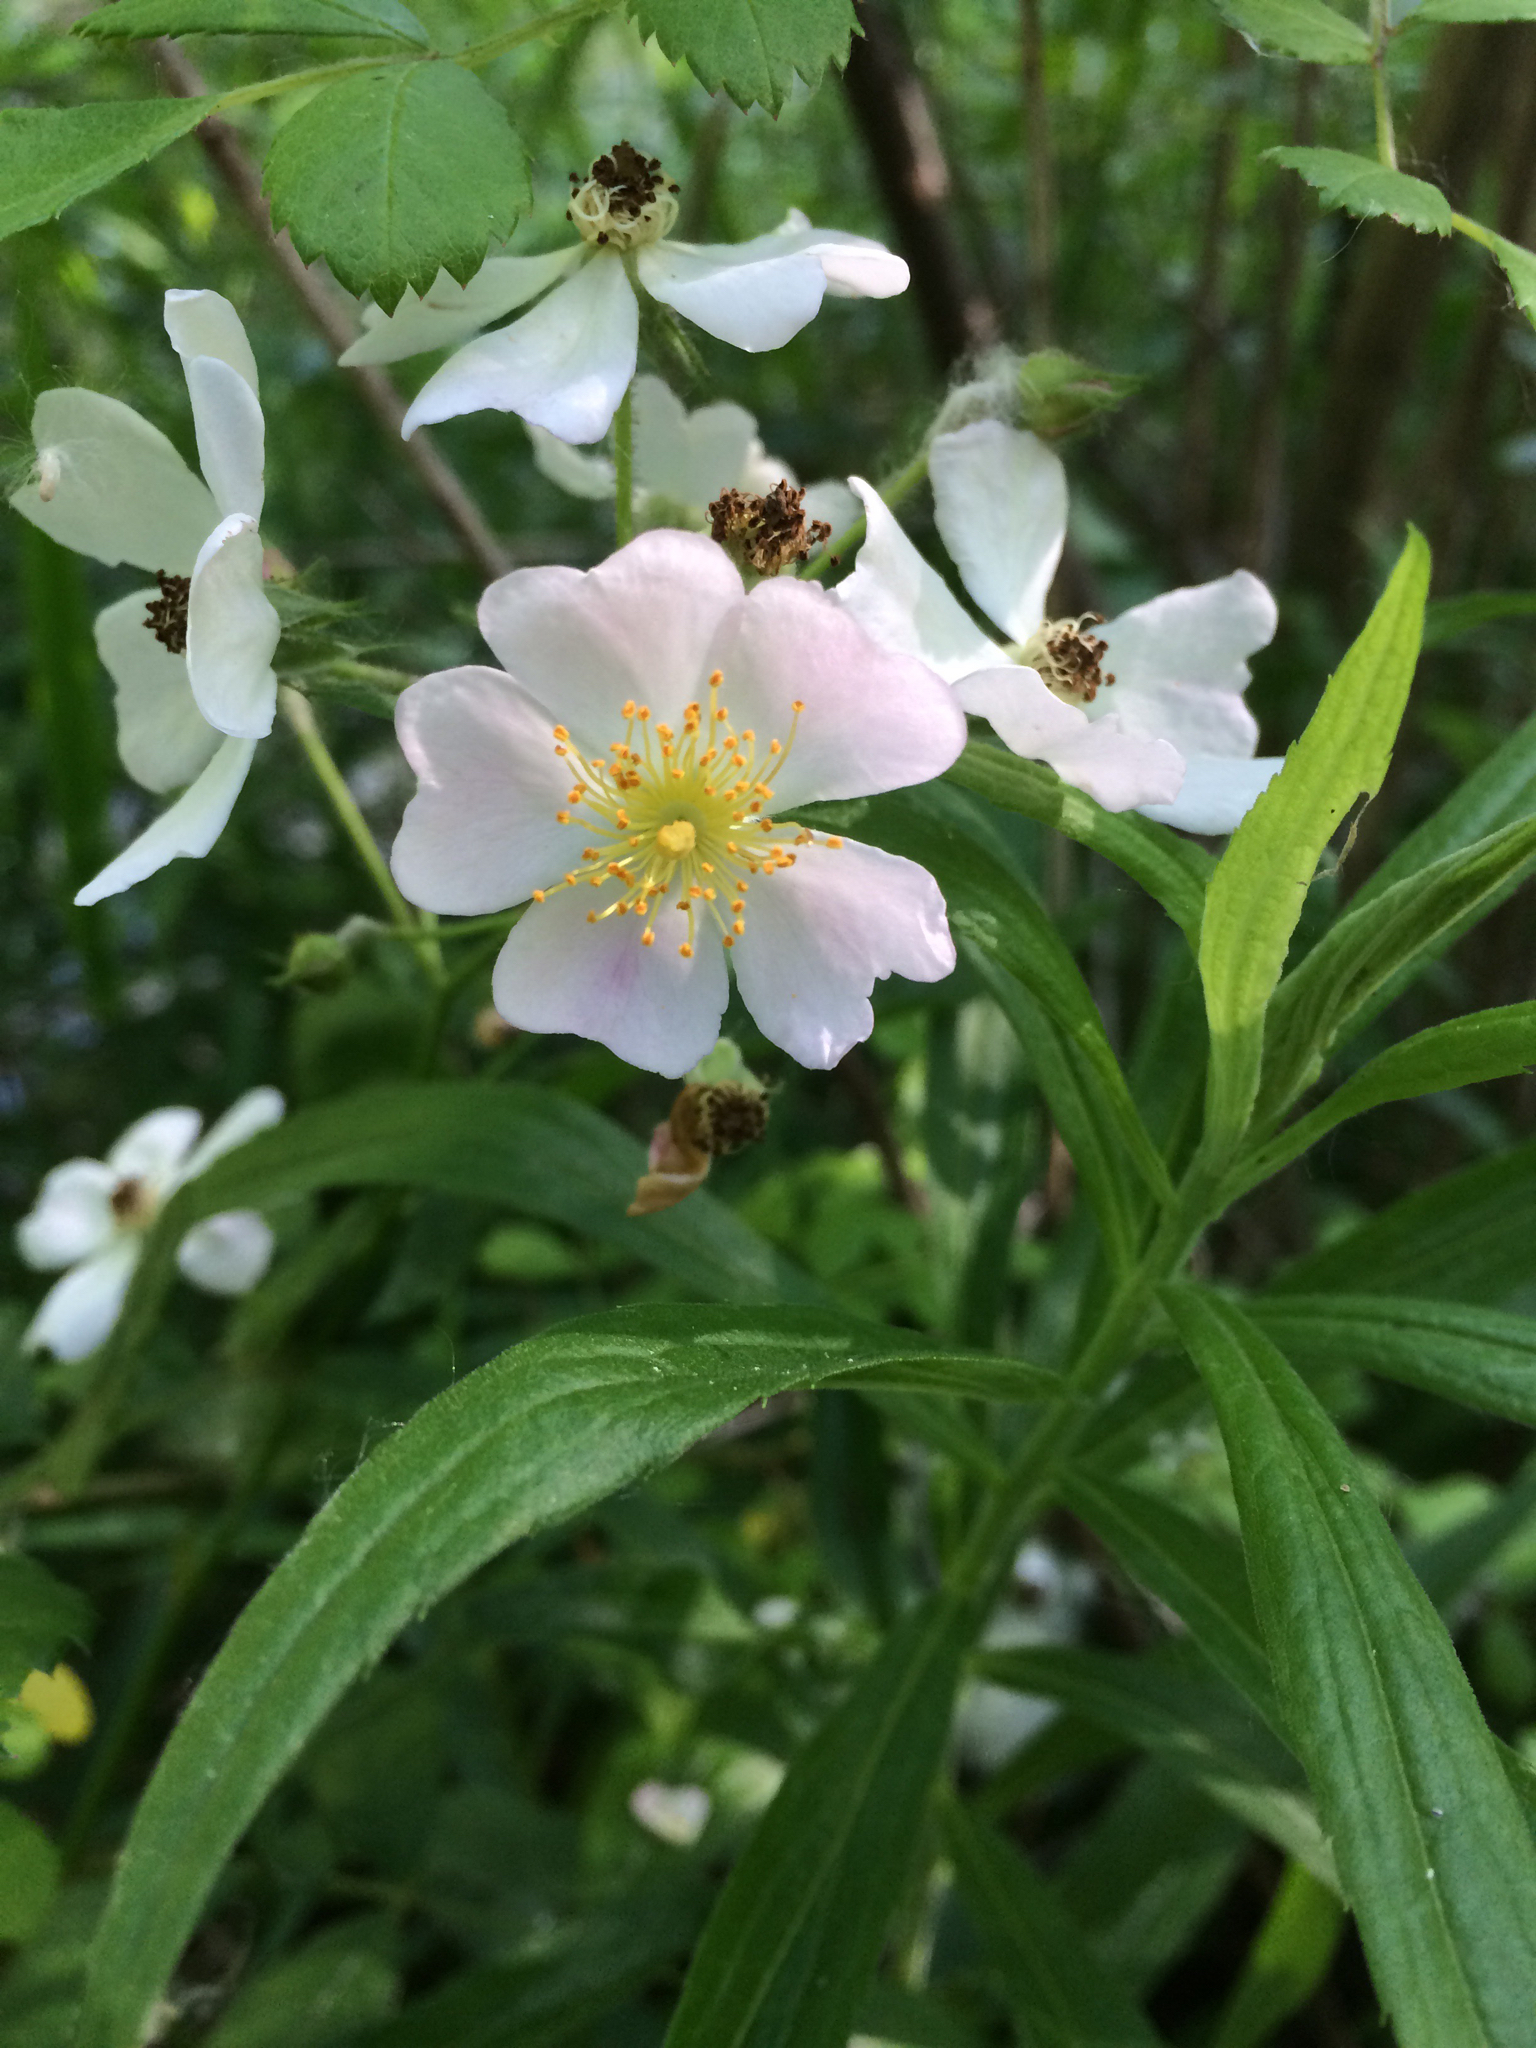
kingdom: Plantae
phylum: Tracheophyta
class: Magnoliopsida
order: Rosales
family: Rosaceae
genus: Rosa
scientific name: Rosa blanda
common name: Smooth rose
